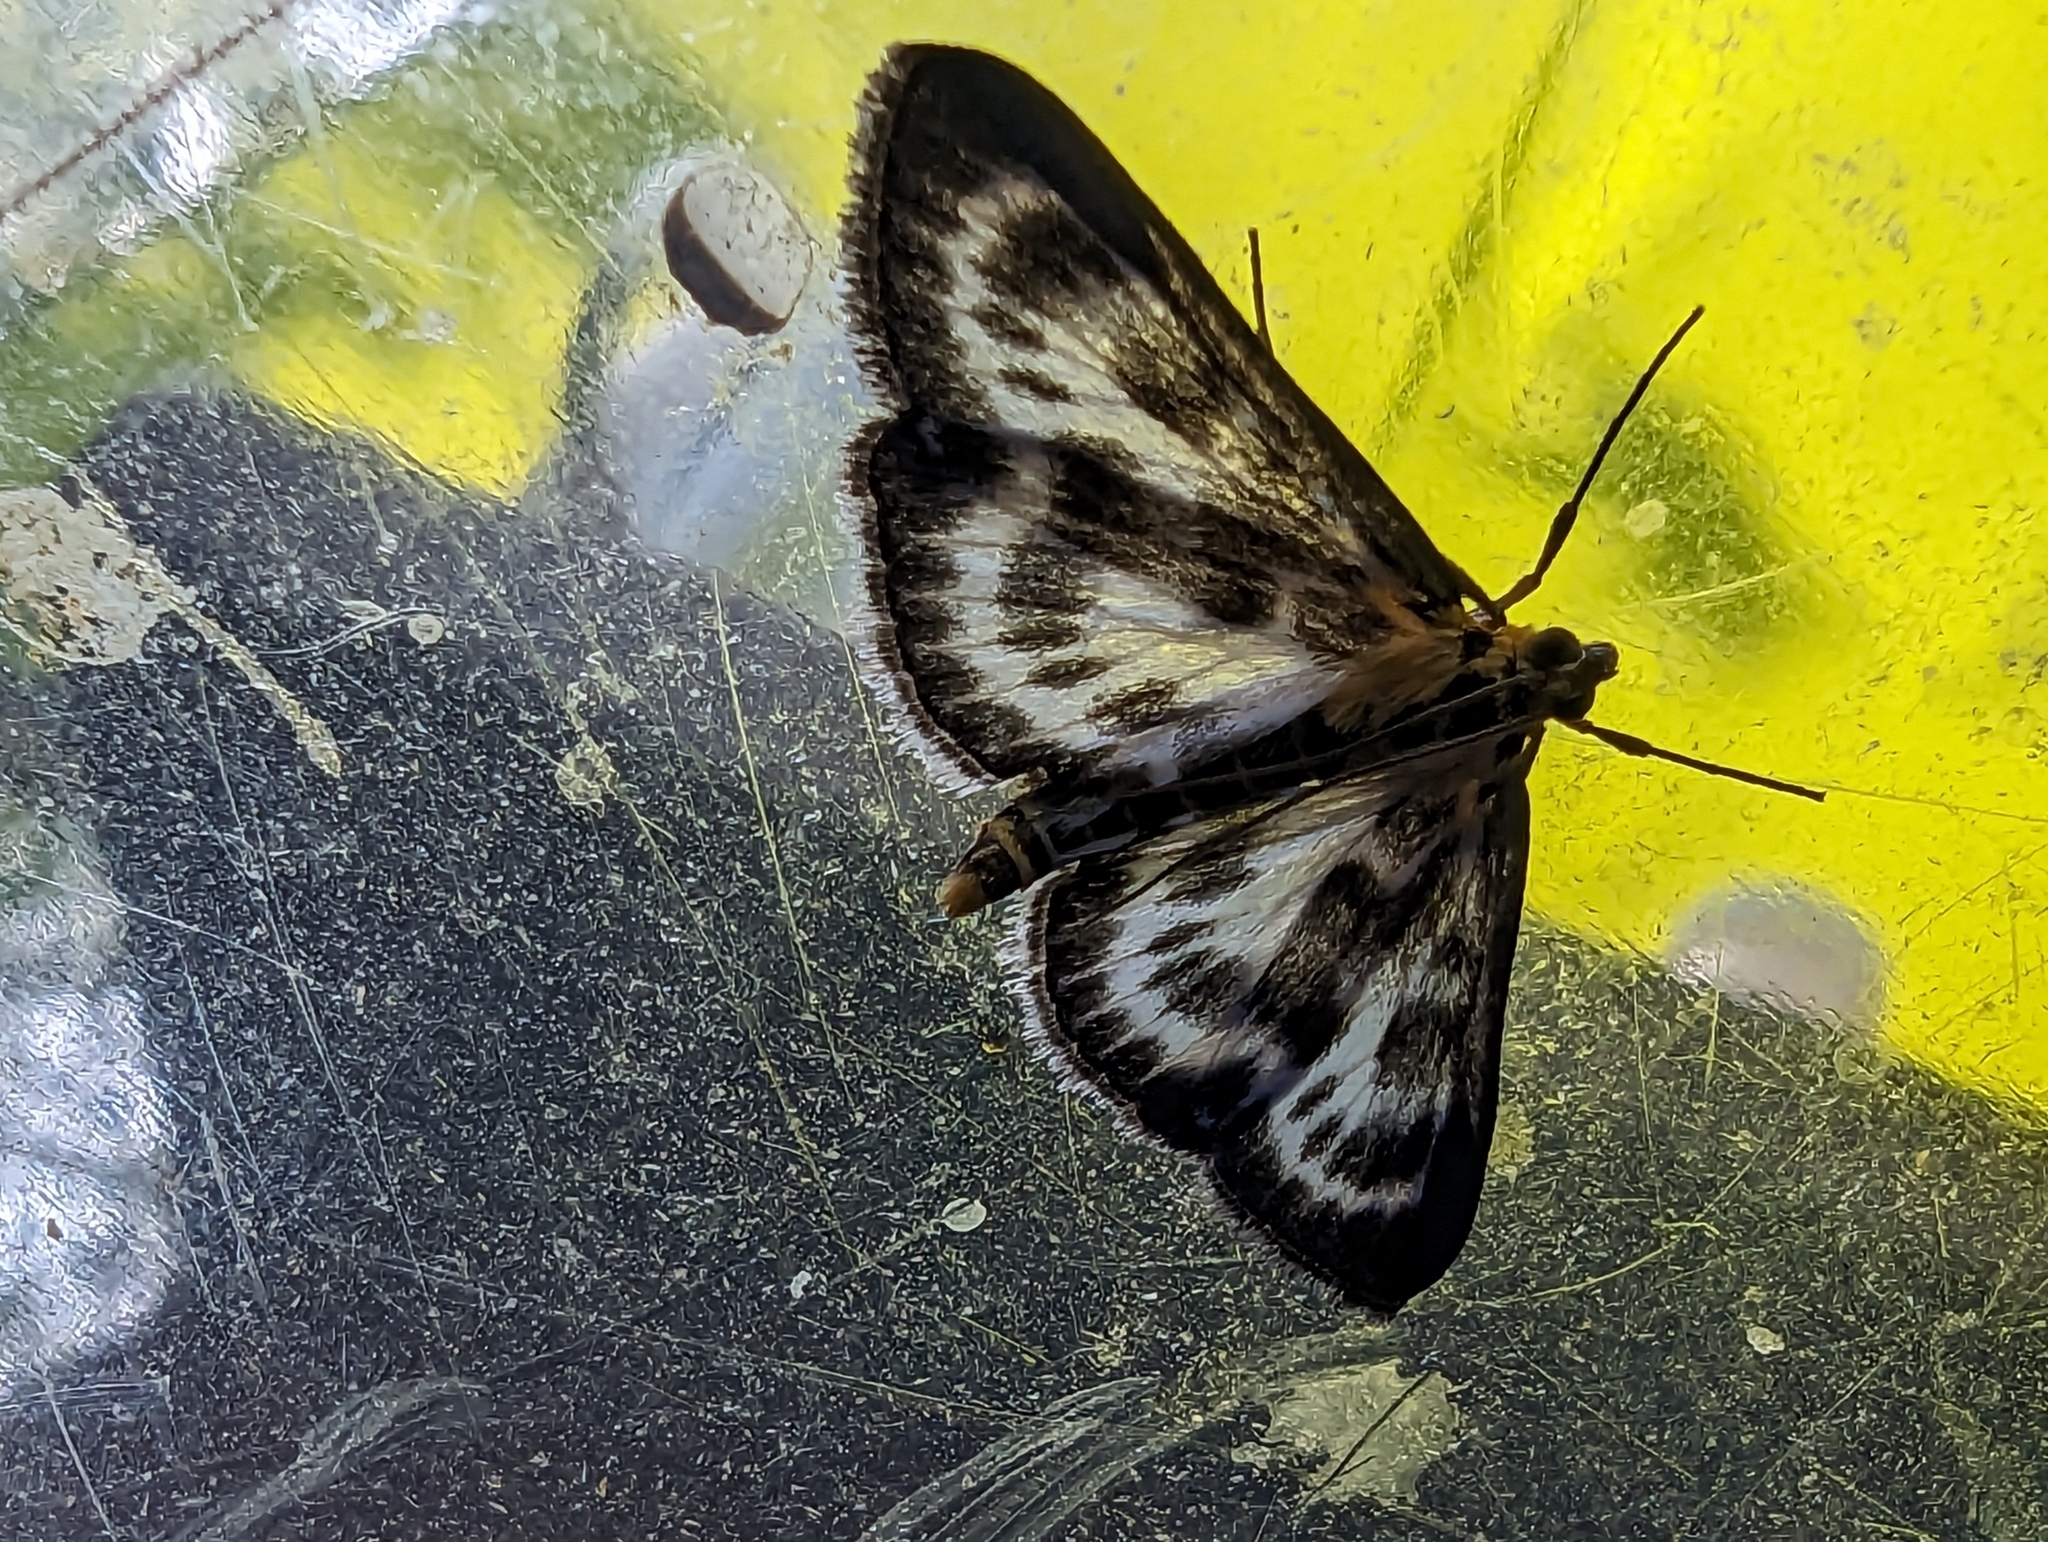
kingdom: Animalia
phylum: Arthropoda
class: Insecta
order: Lepidoptera
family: Crambidae
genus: Anania
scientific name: Anania hortulata
